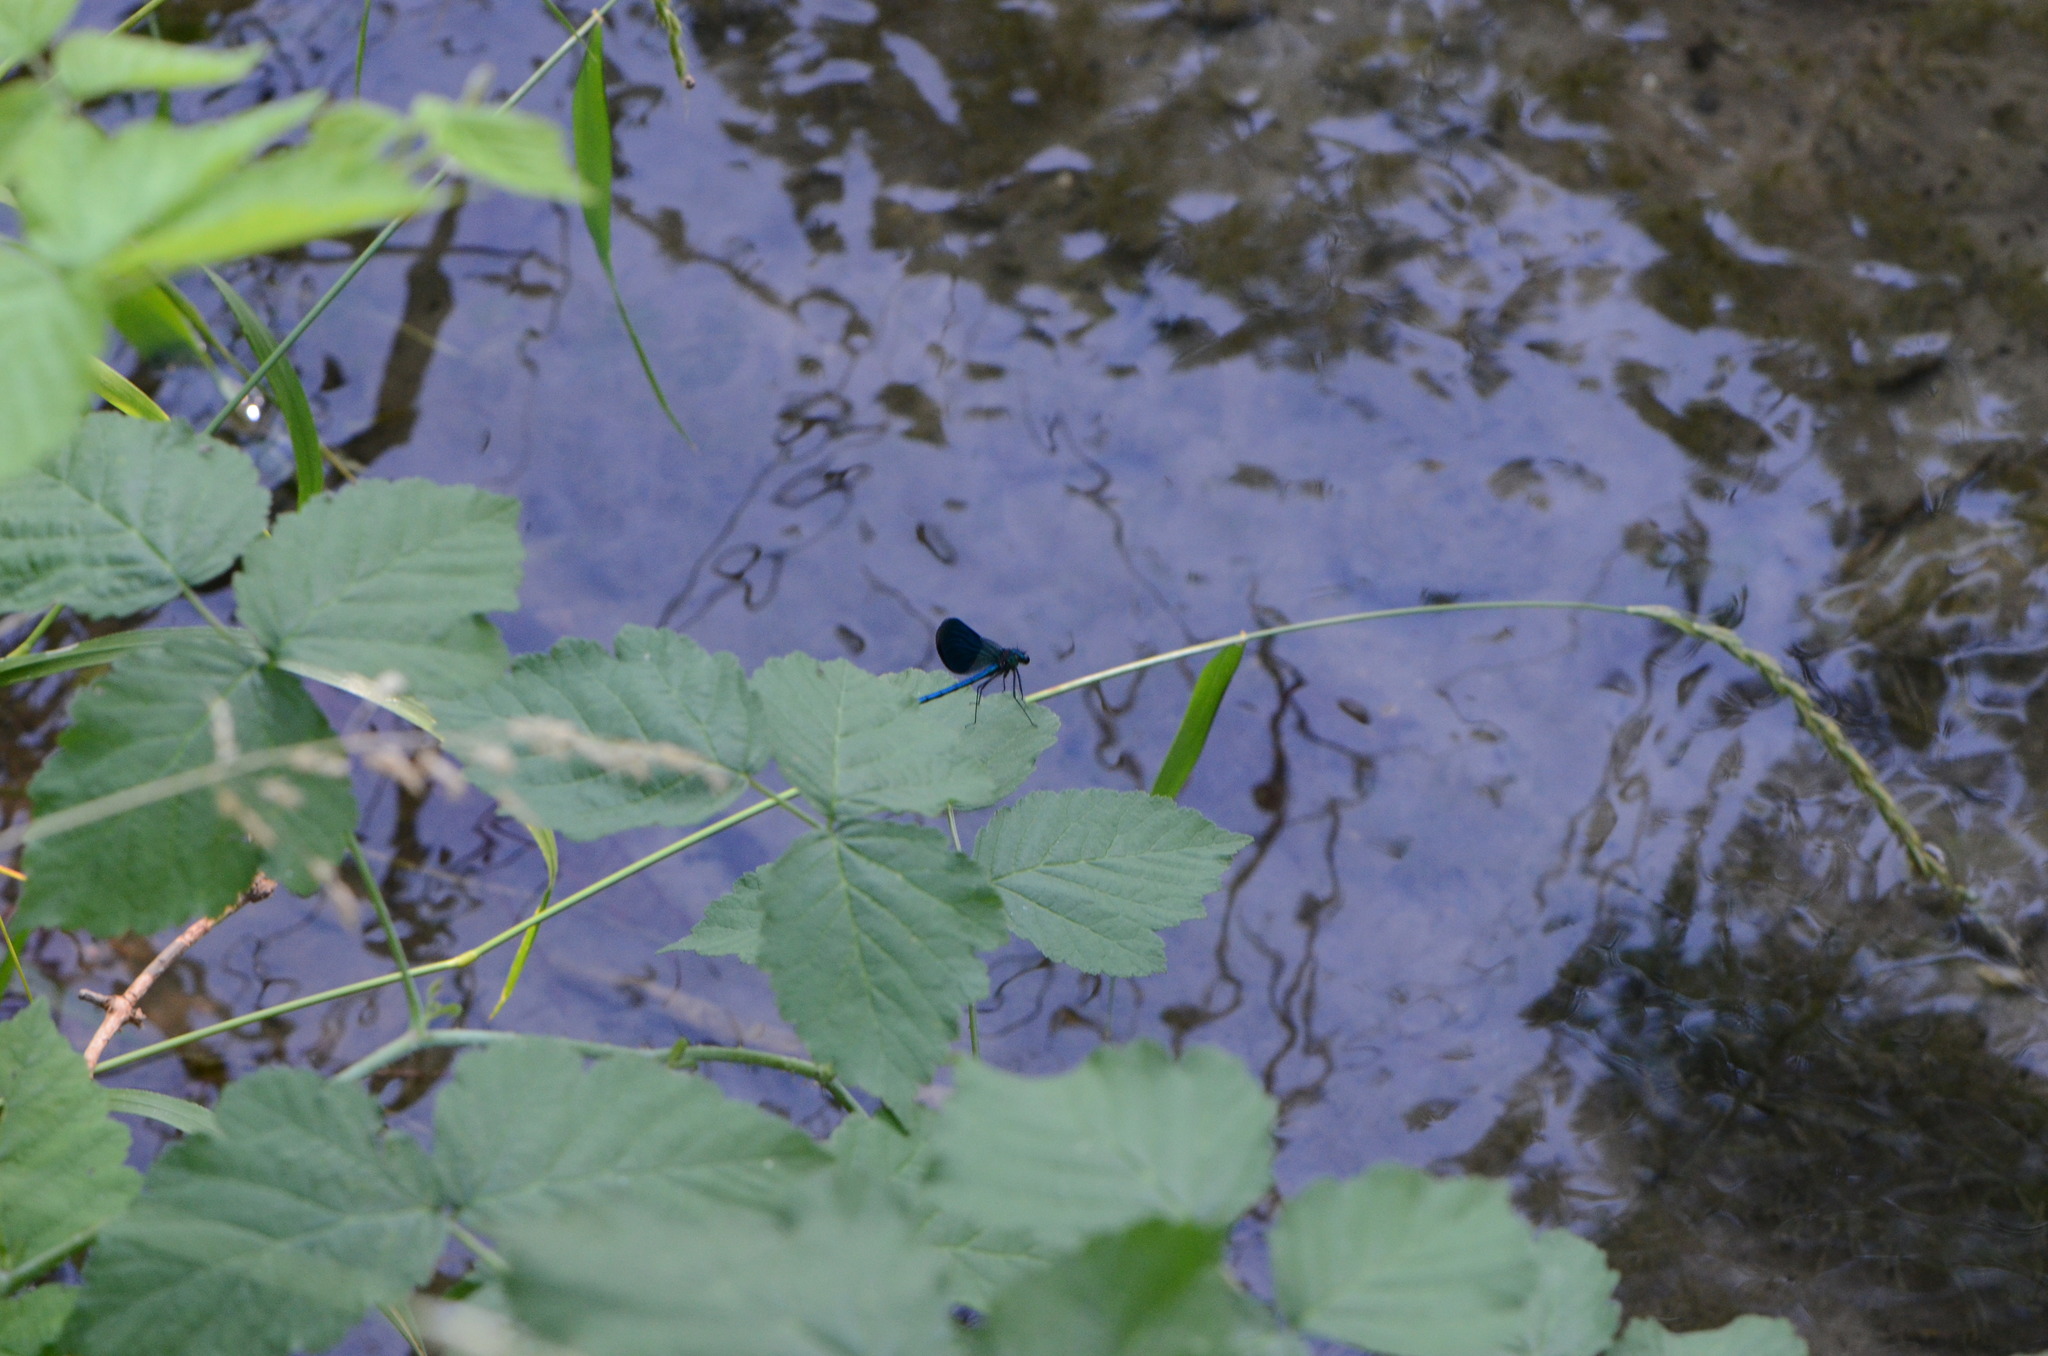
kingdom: Animalia
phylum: Arthropoda
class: Insecta
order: Odonata
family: Calopterygidae
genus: Calopteryx
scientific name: Calopteryx splendens
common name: Banded demoiselle
